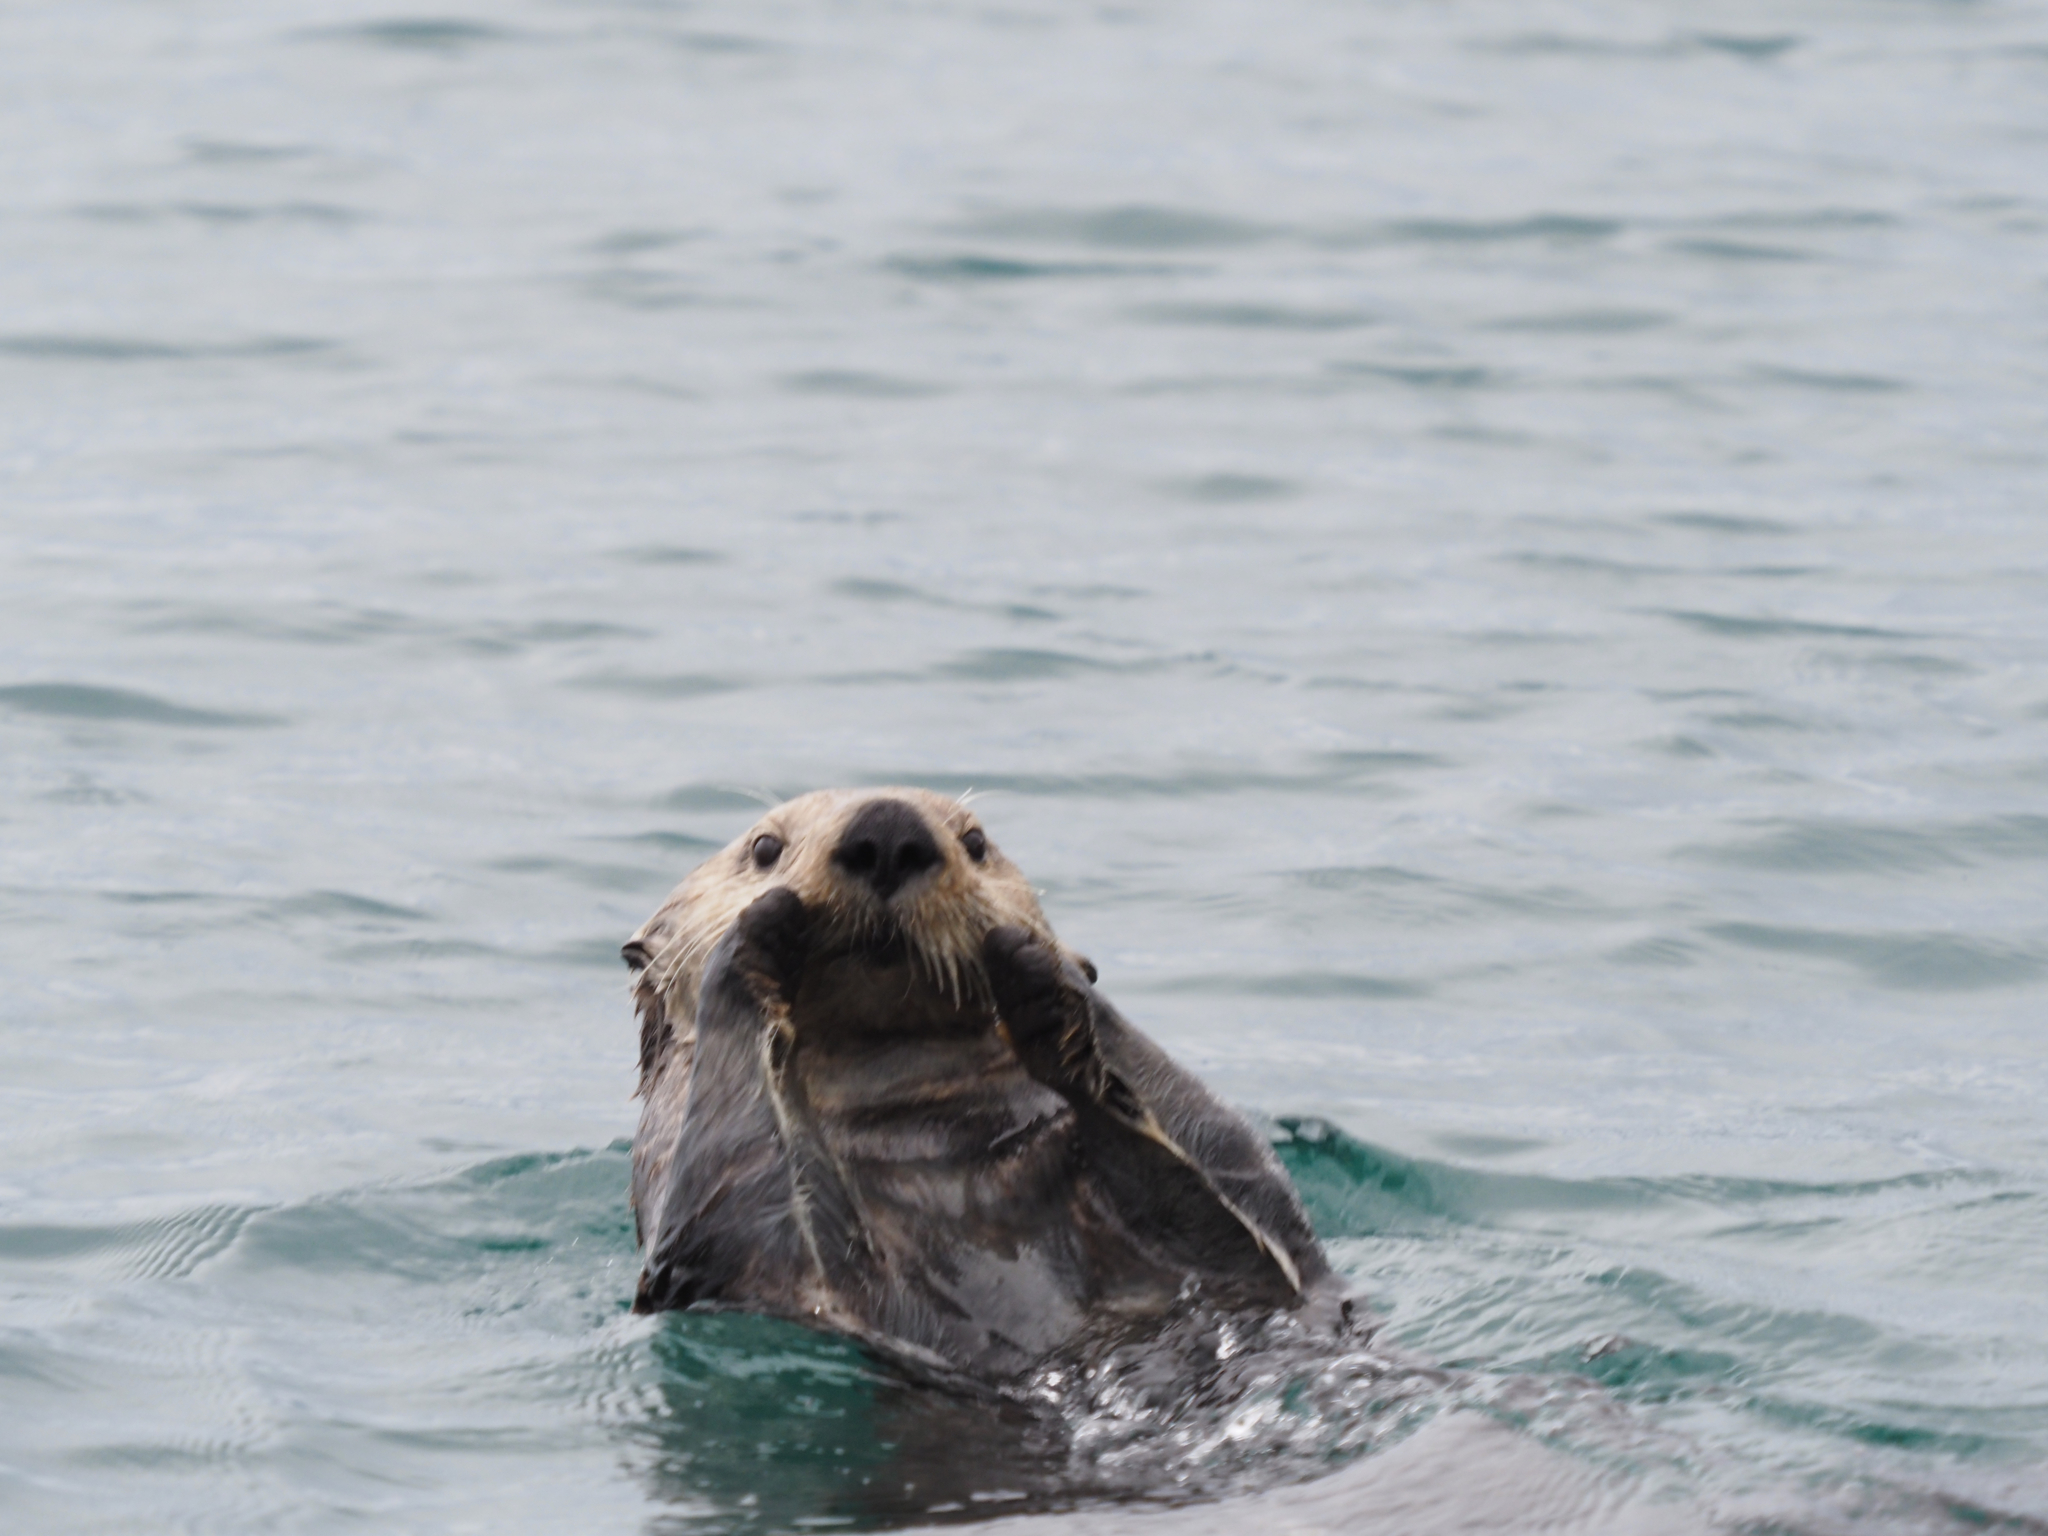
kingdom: Animalia
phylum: Chordata
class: Mammalia
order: Carnivora
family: Mustelidae
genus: Enhydra
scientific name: Enhydra lutris
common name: Sea otter
